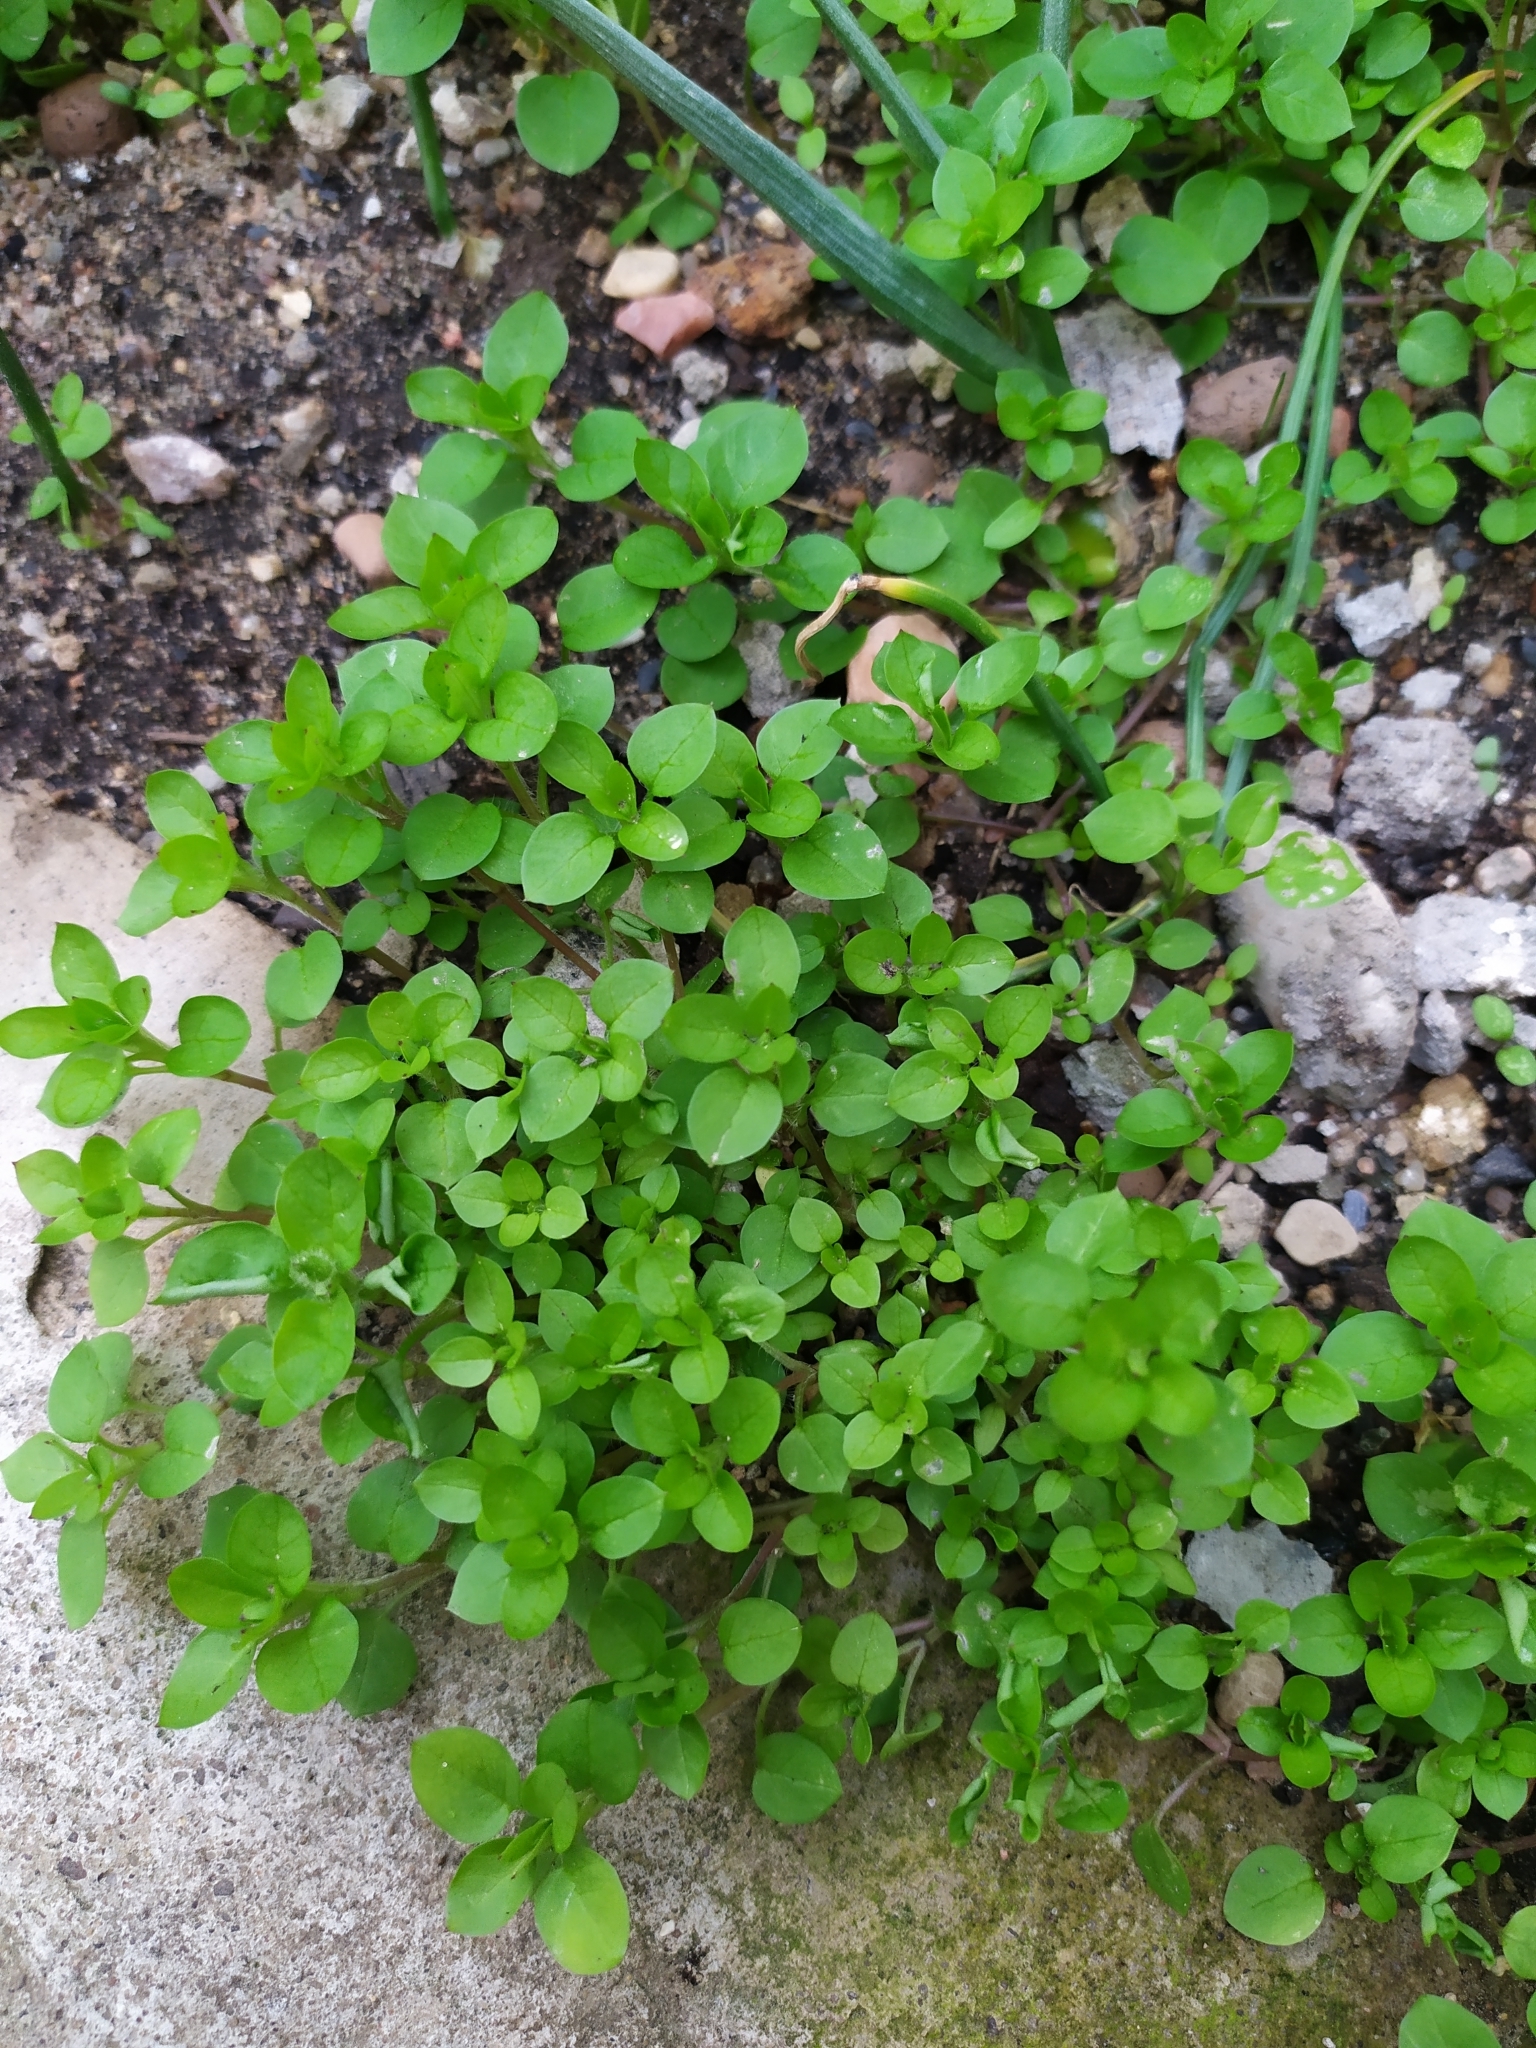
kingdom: Plantae
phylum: Tracheophyta
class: Magnoliopsida
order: Caryophyllales
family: Caryophyllaceae
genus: Stellaria
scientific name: Stellaria media
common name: Common chickweed
